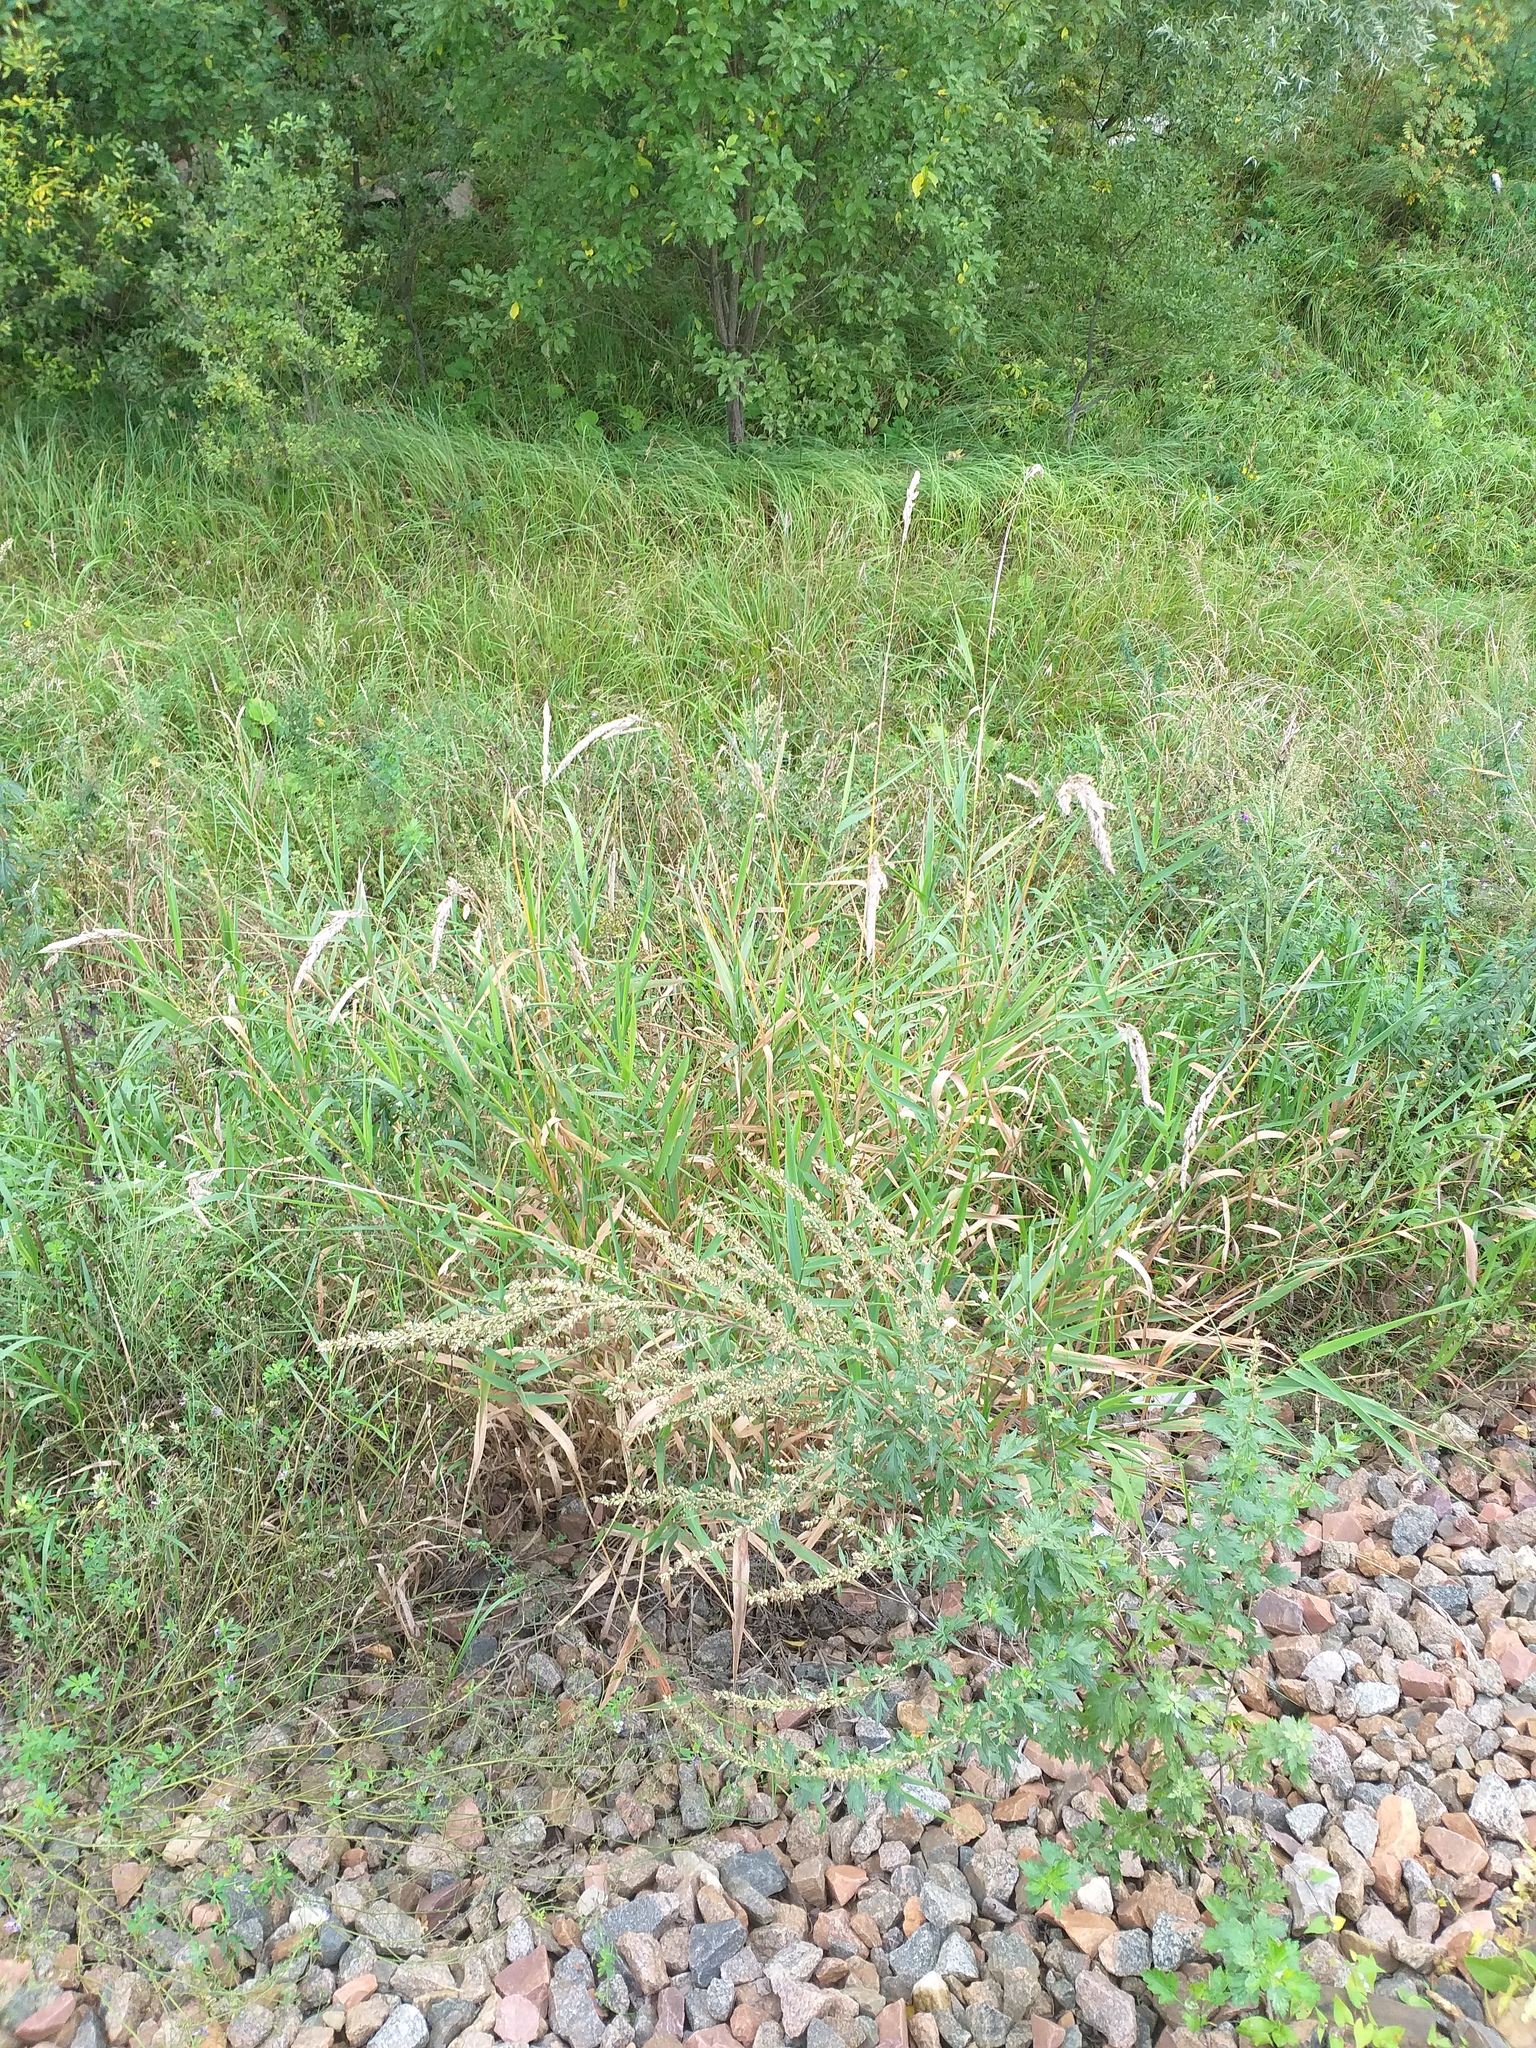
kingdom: Plantae
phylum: Tracheophyta
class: Liliopsida
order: Poales
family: Poaceae
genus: Phalaris
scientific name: Phalaris arundinacea
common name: Reed canary-grass
